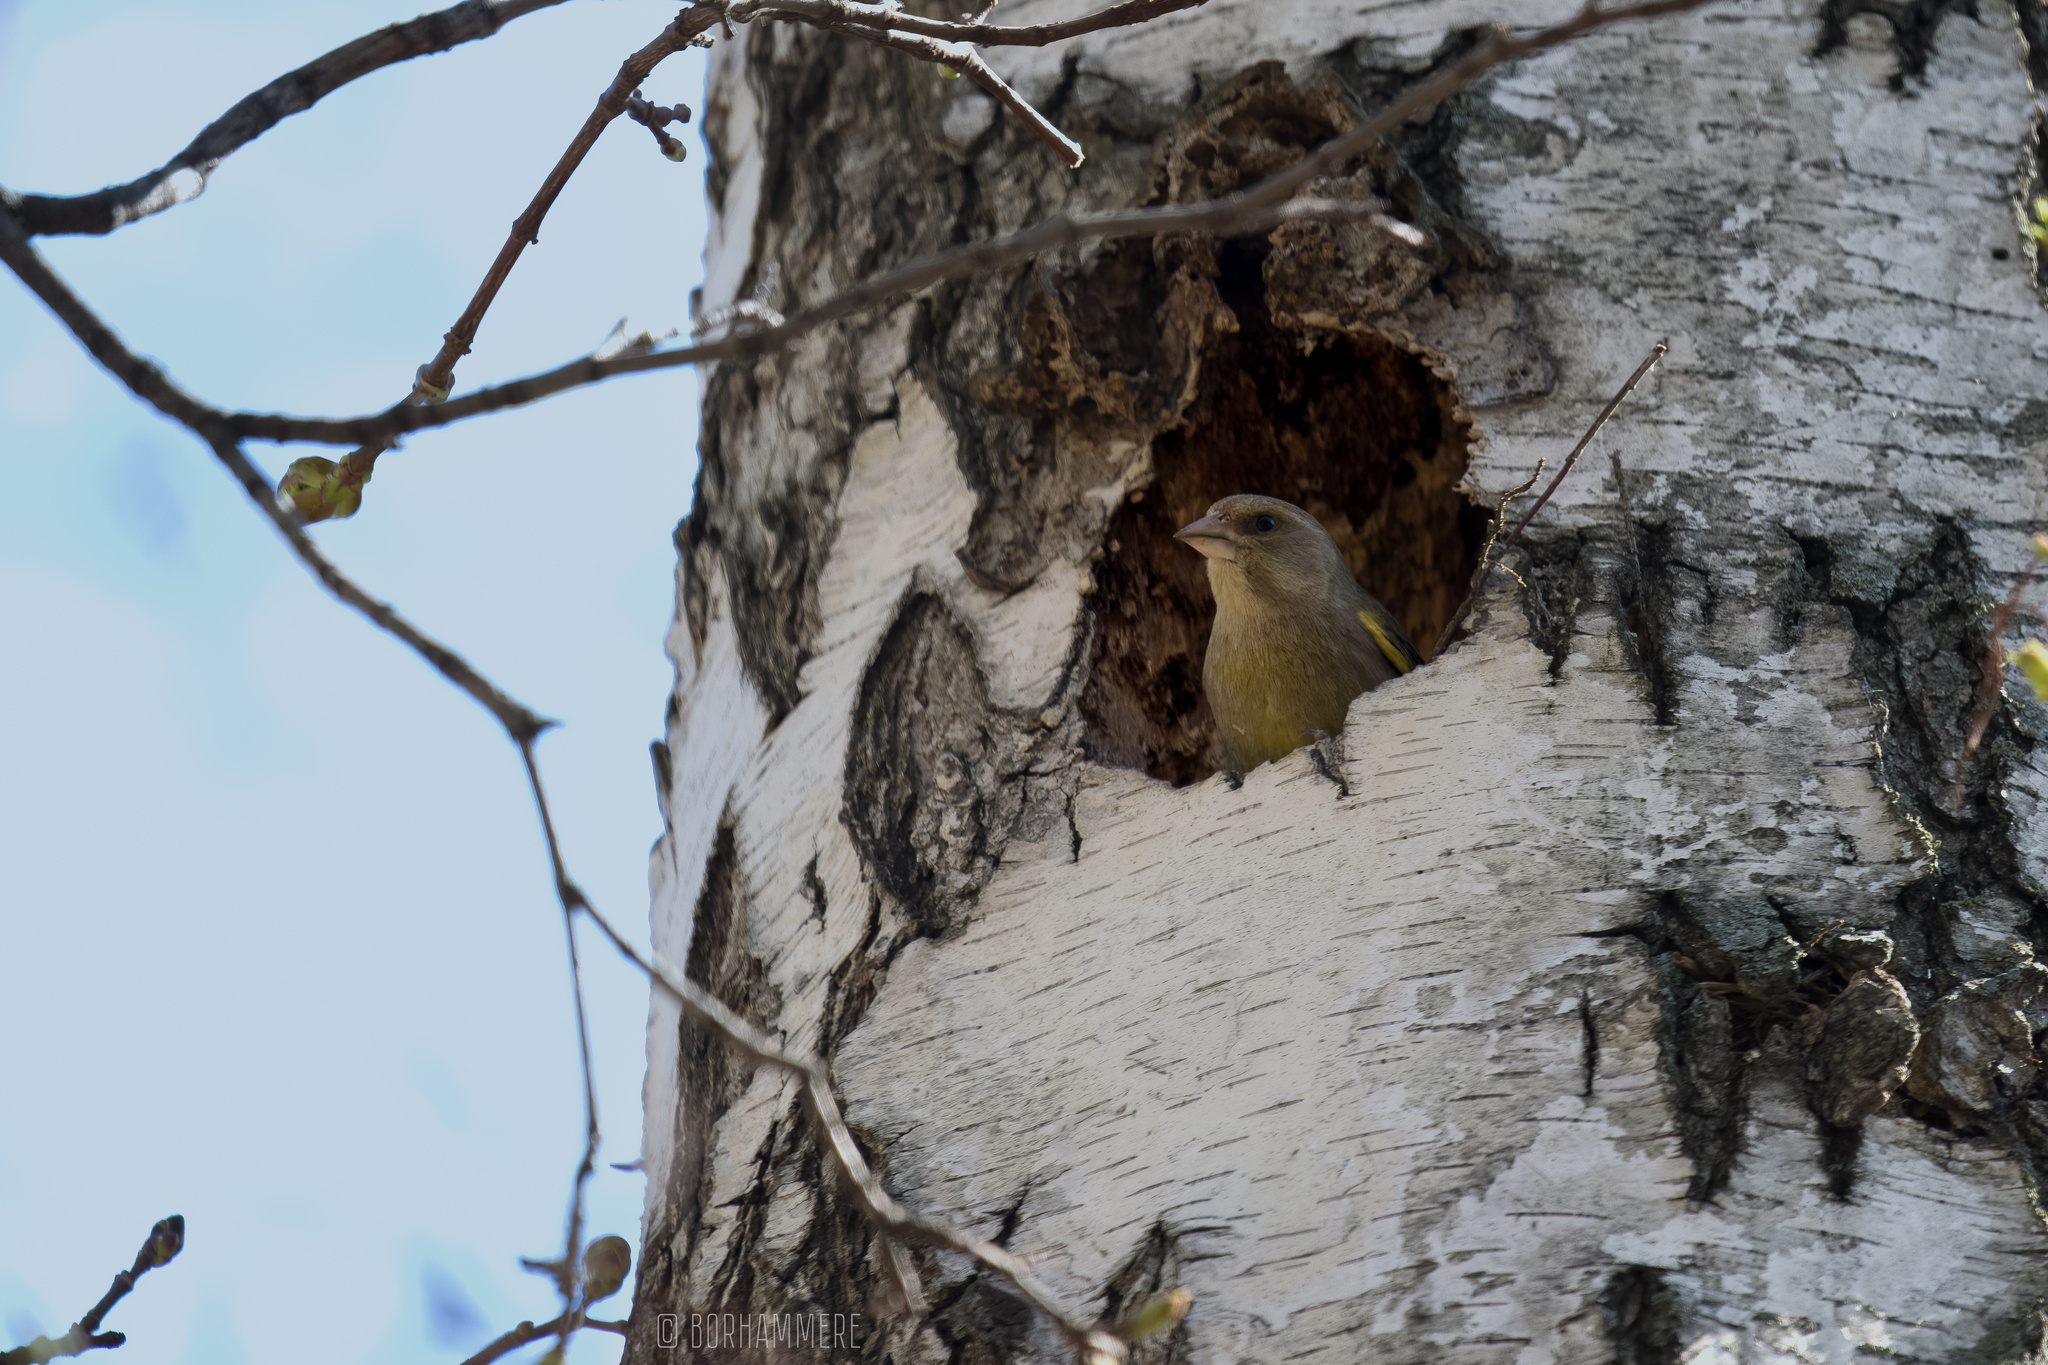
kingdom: Plantae
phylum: Tracheophyta
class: Liliopsida
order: Poales
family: Poaceae
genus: Chloris
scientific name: Chloris chloris
